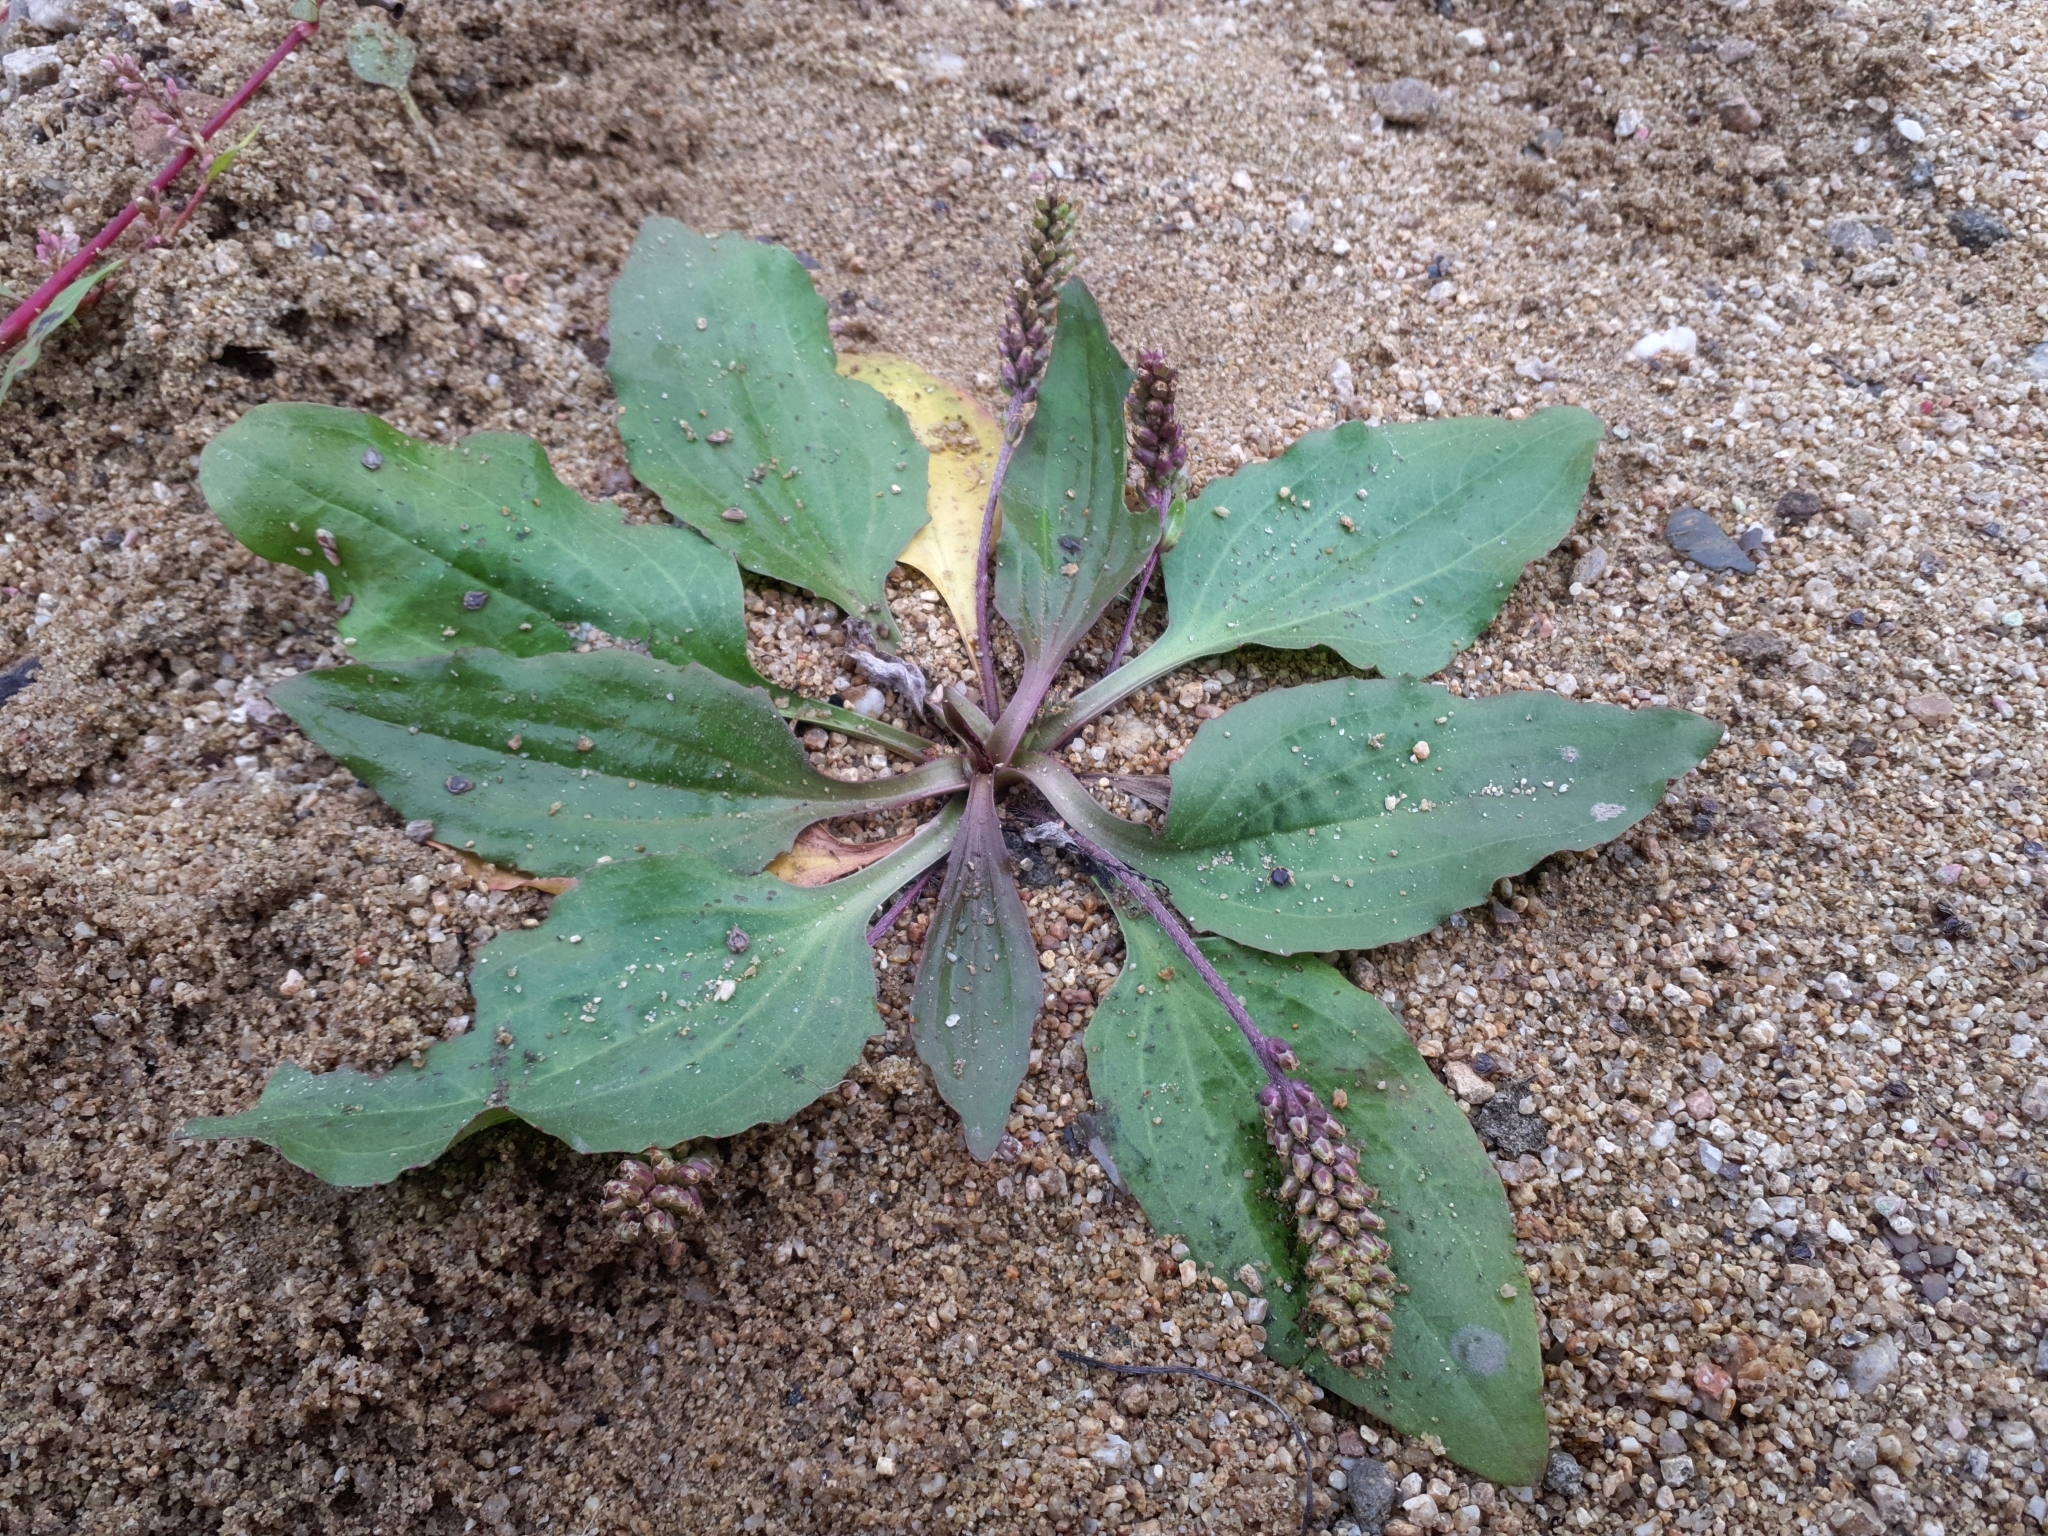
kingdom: Plantae
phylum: Tracheophyta
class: Magnoliopsida
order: Lamiales
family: Plantaginaceae
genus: Plantago
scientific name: Plantago uliginosa
